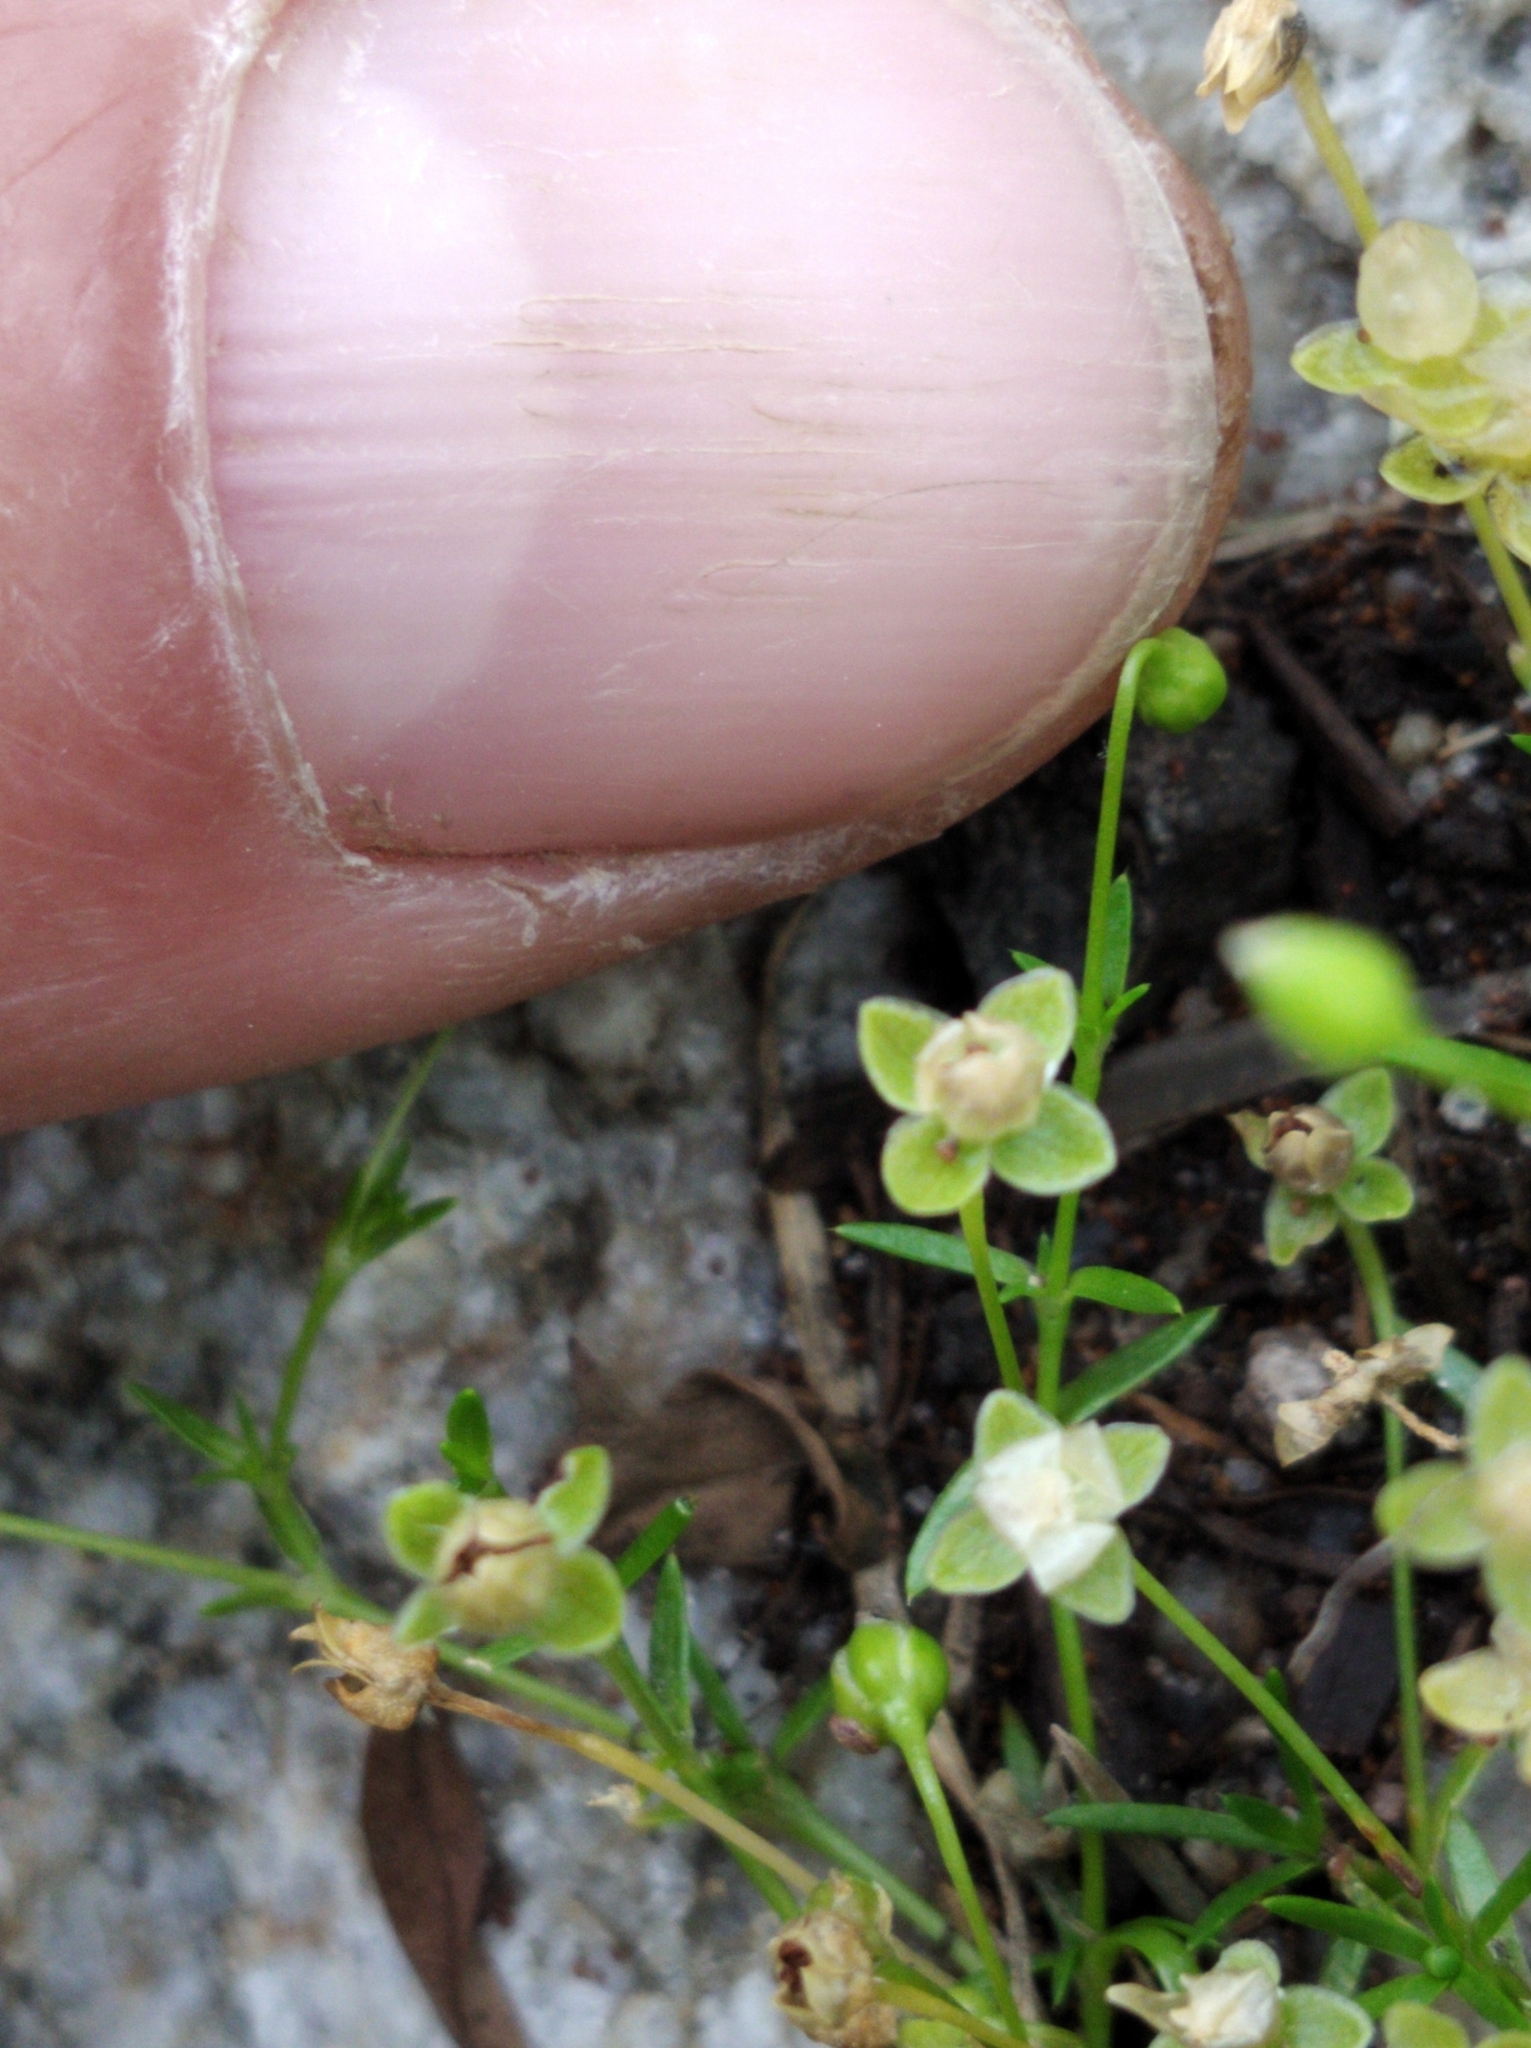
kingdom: Plantae
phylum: Tracheophyta
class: Magnoliopsida
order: Caryophyllales
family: Caryophyllaceae
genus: Sagina
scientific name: Sagina procumbens
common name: Procumbent pearlwort
